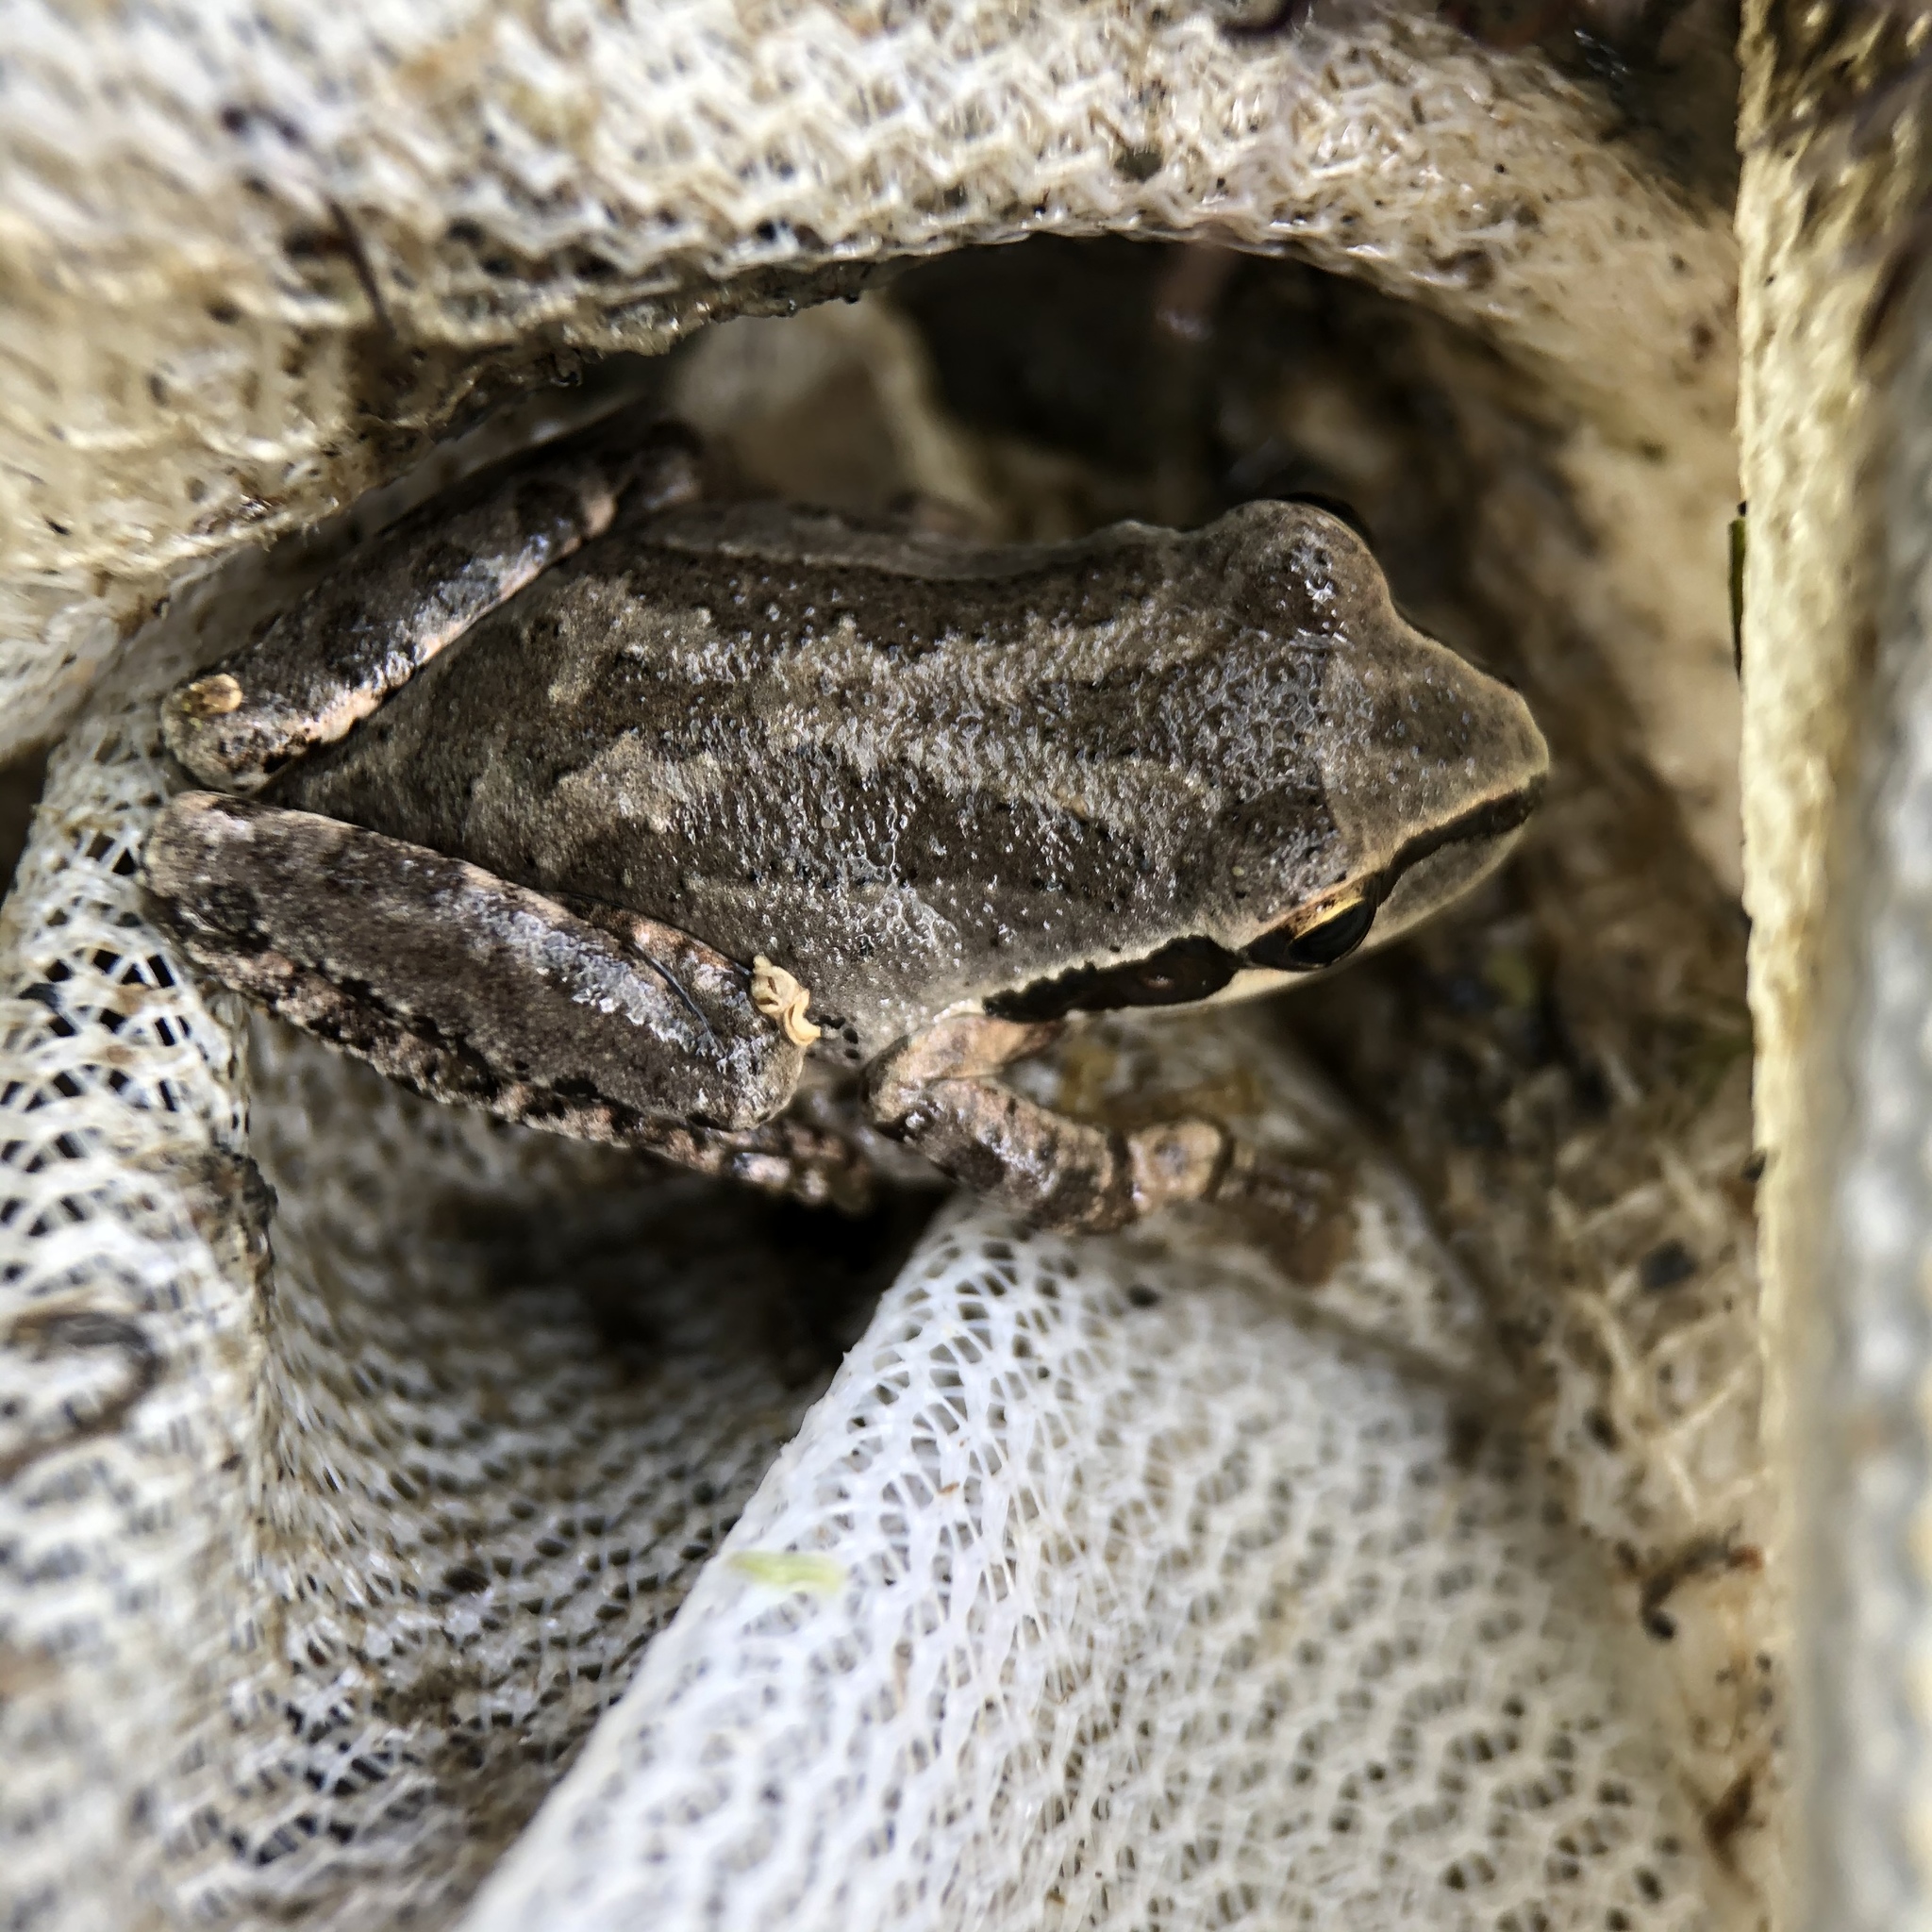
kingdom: Animalia
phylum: Chordata
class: Amphibia
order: Anura
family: Hylidae
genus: Pseudacris
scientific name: Pseudacris regilla
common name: Pacific chorus frog
